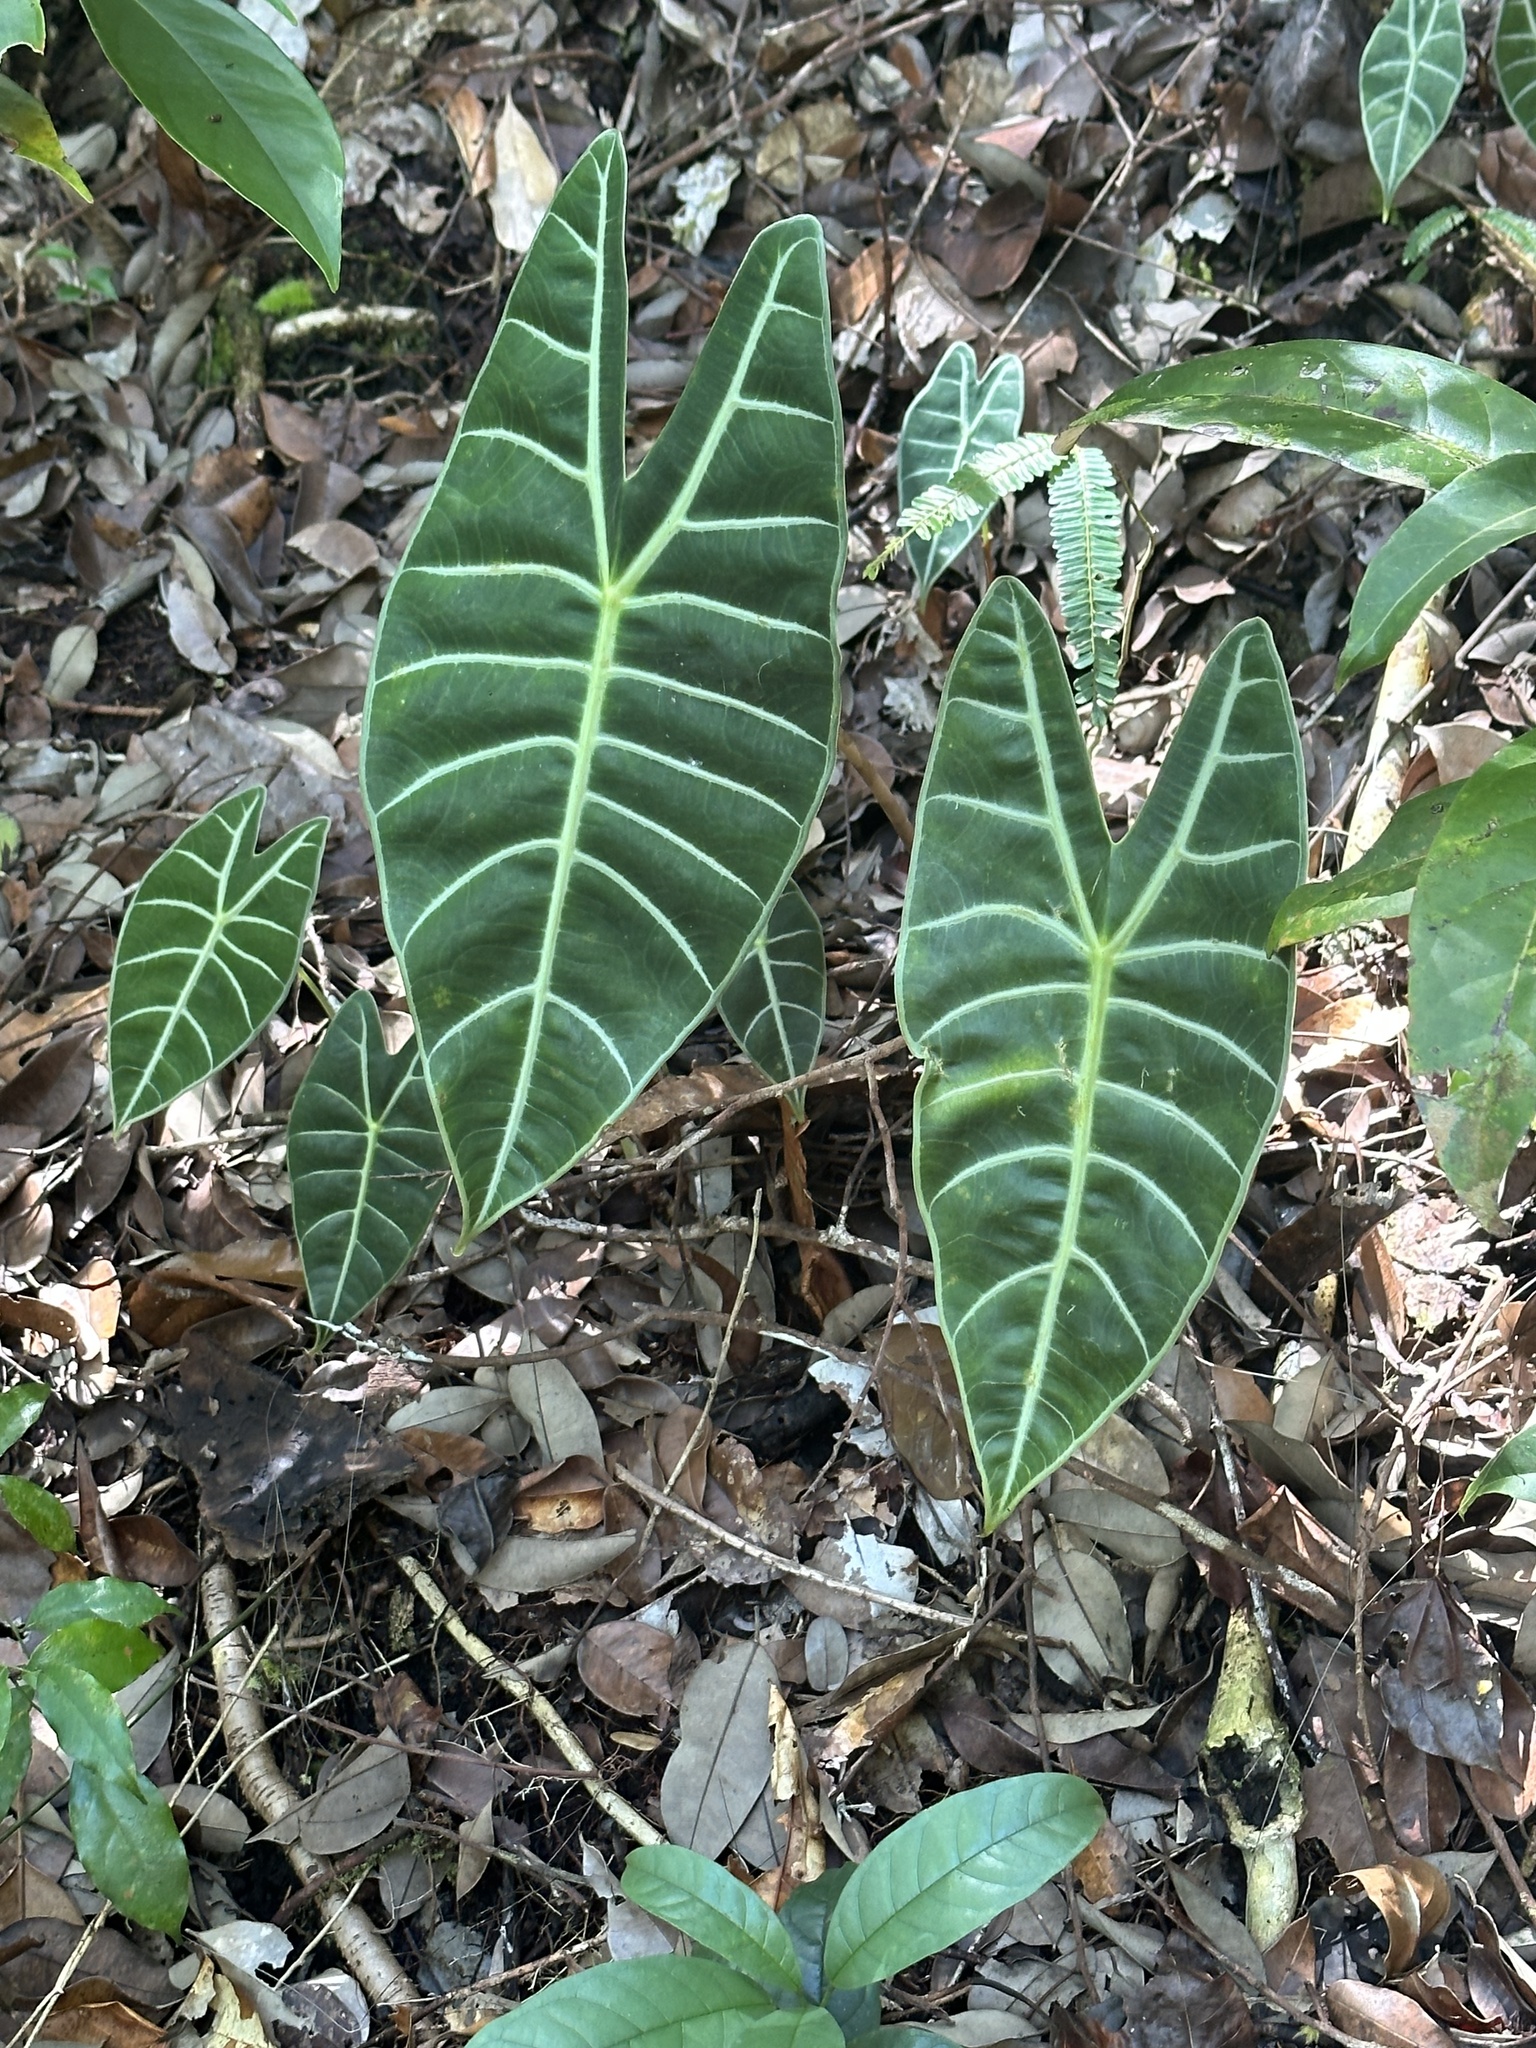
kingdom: Plantae
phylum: Tracheophyta
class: Liliopsida
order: Alismatales
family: Araceae
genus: Alocasia
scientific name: Alocasia longiloba
